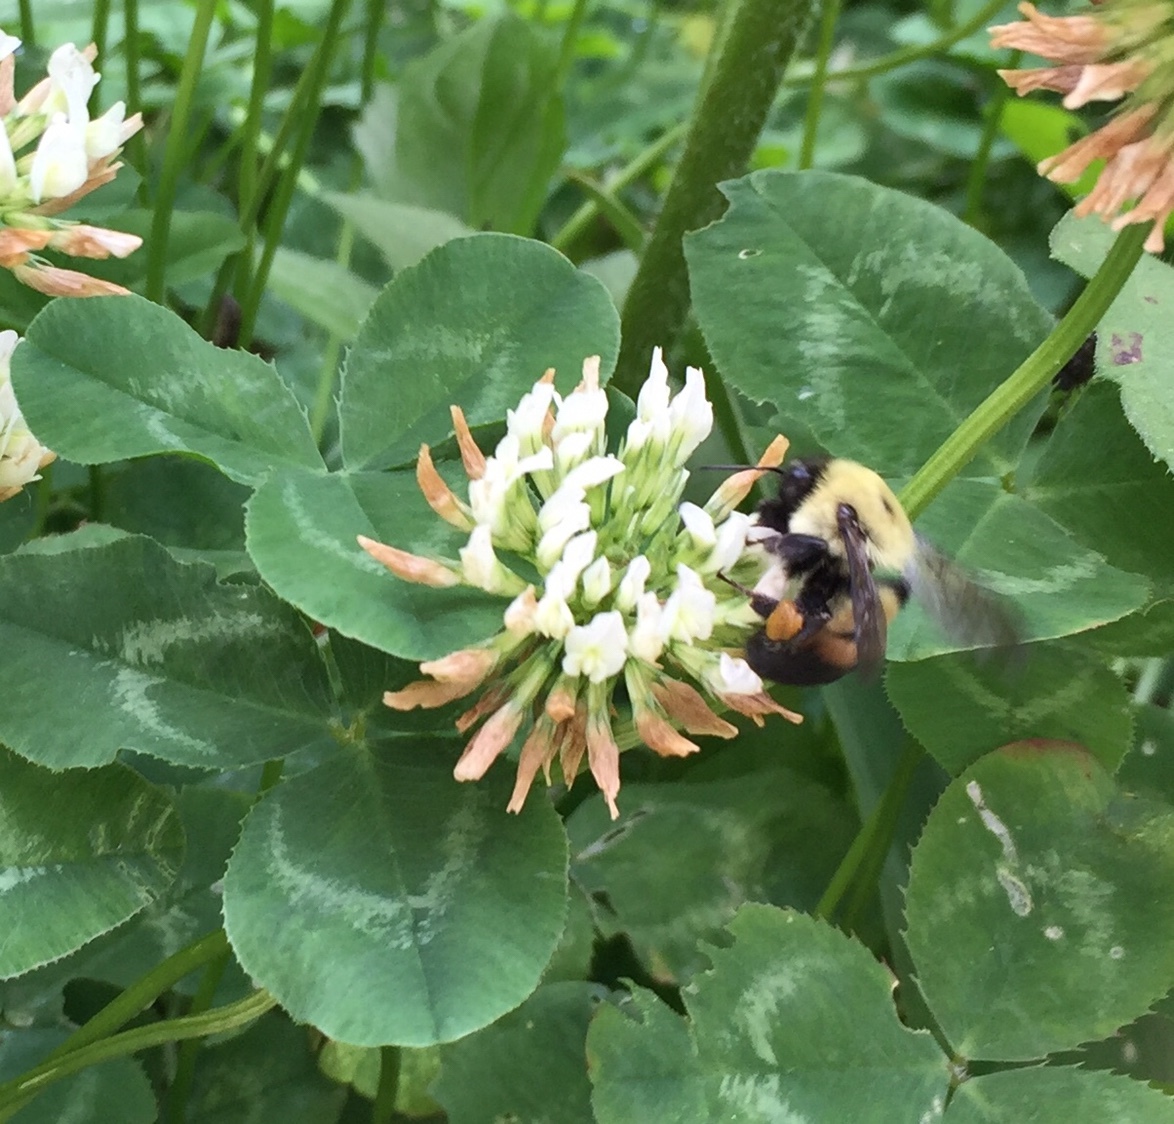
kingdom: Animalia
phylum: Arthropoda
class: Insecta
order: Hymenoptera
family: Apidae
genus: Bombus
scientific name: Bombus griseocollis
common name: Brown-belted bumble bee
